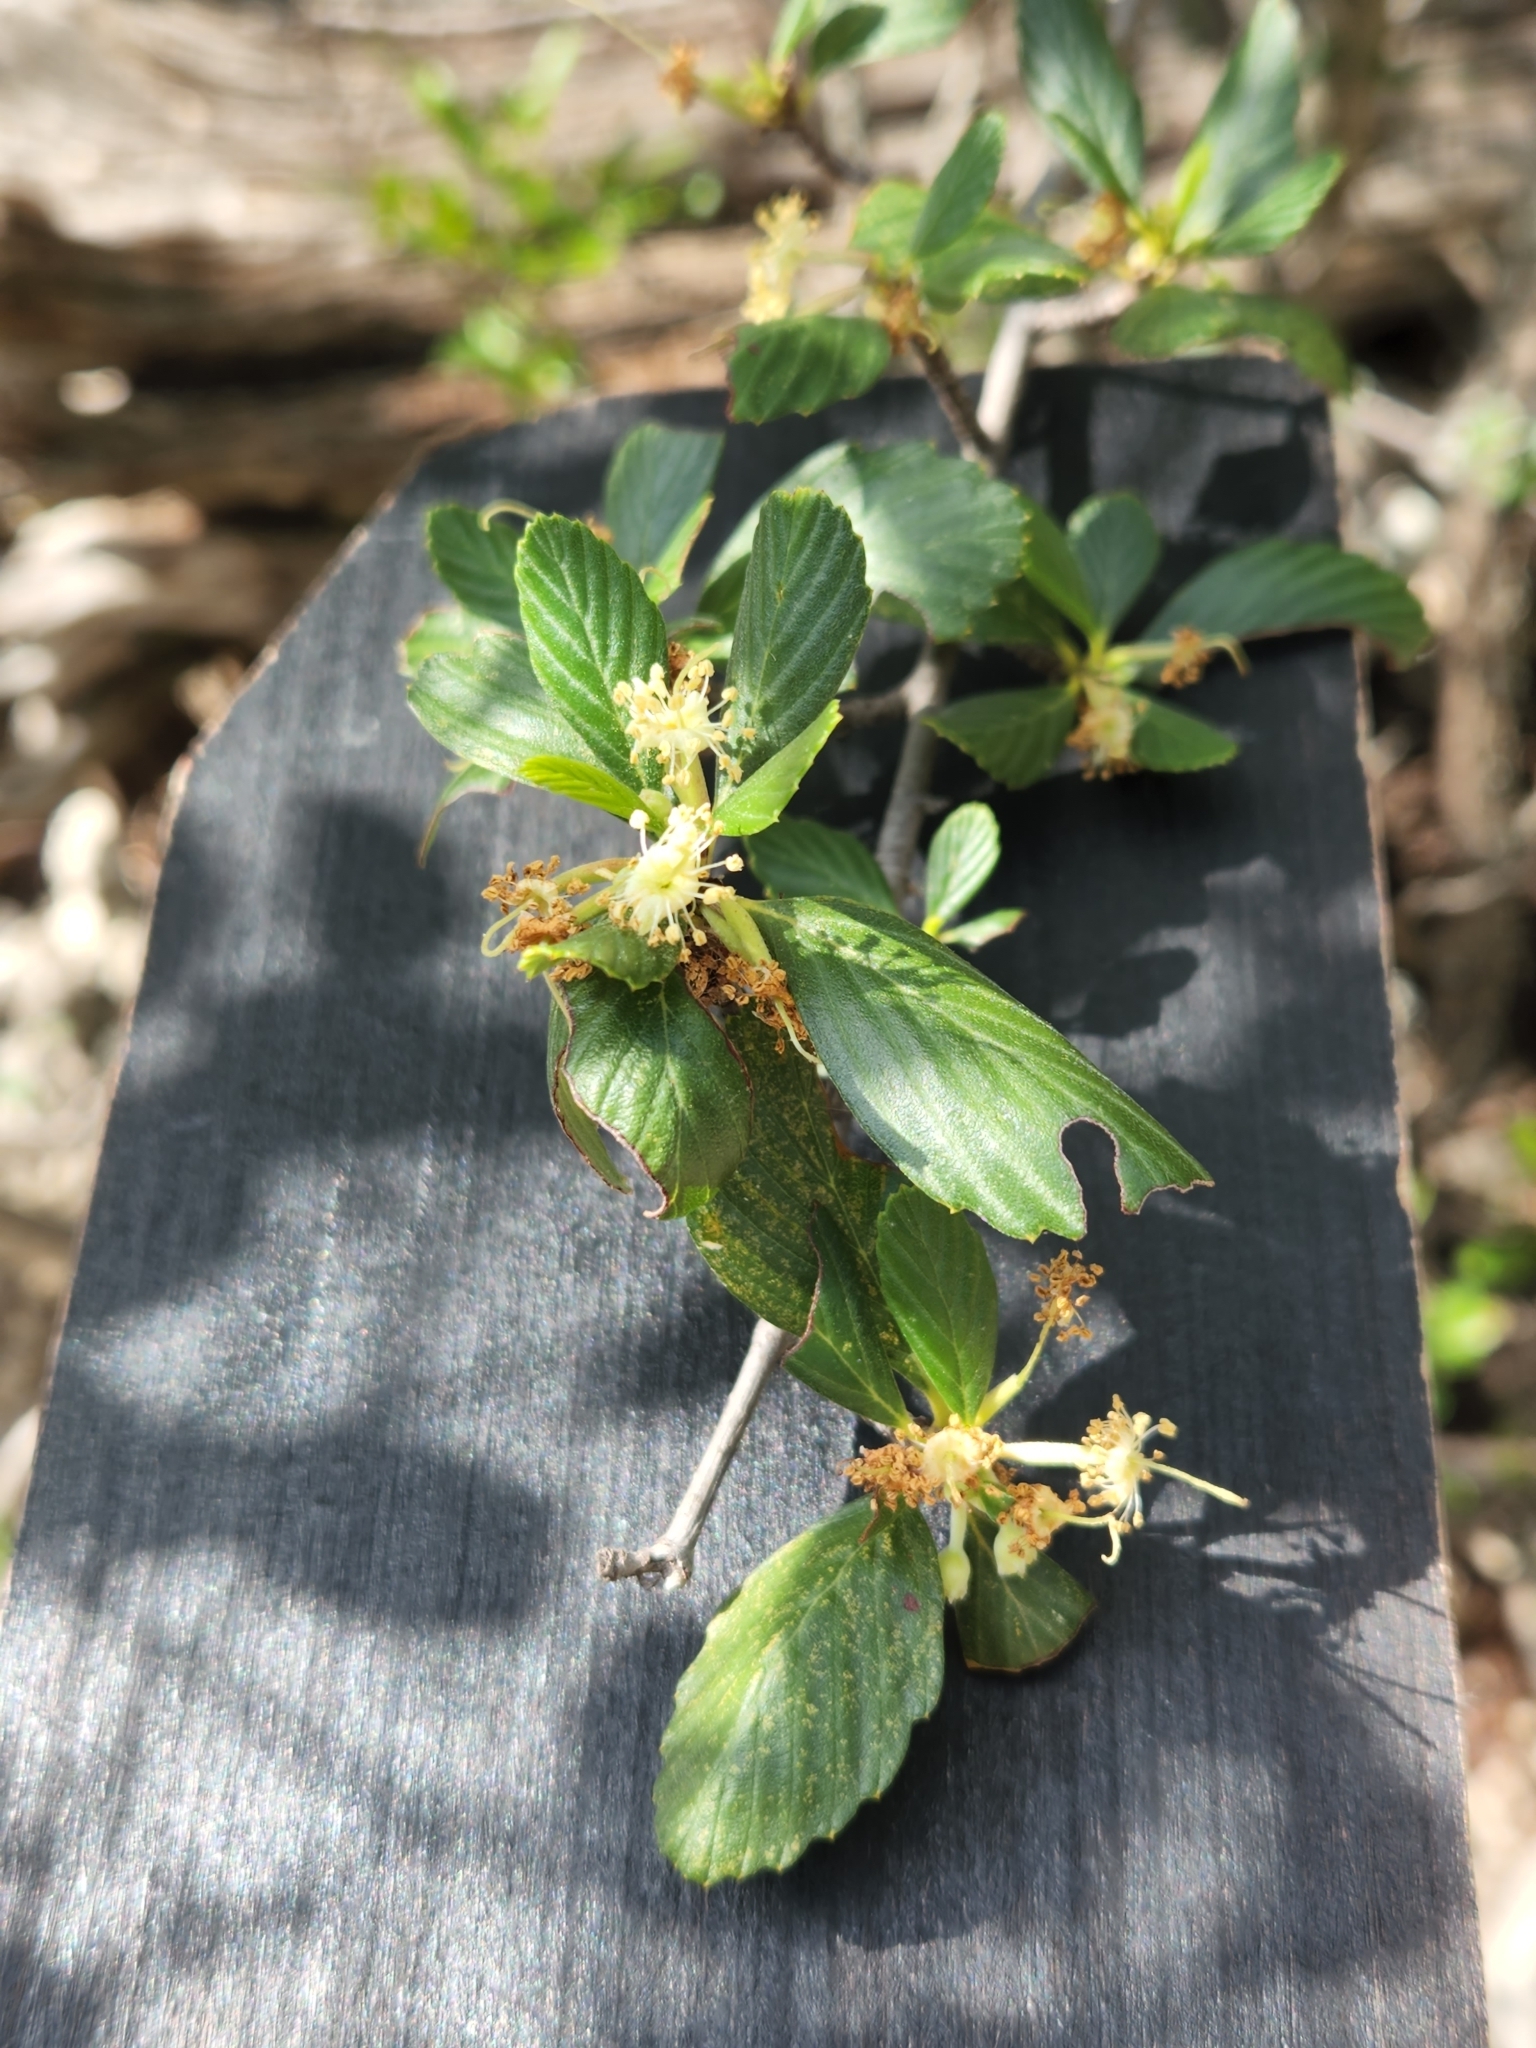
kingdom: Plantae
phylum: Tracheophyta
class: Magnoliopsida
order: Rosales
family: Rosaceae
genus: Cercocarpus
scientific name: Cercocarpus montanus
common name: Alder-leaf cercocarpus
